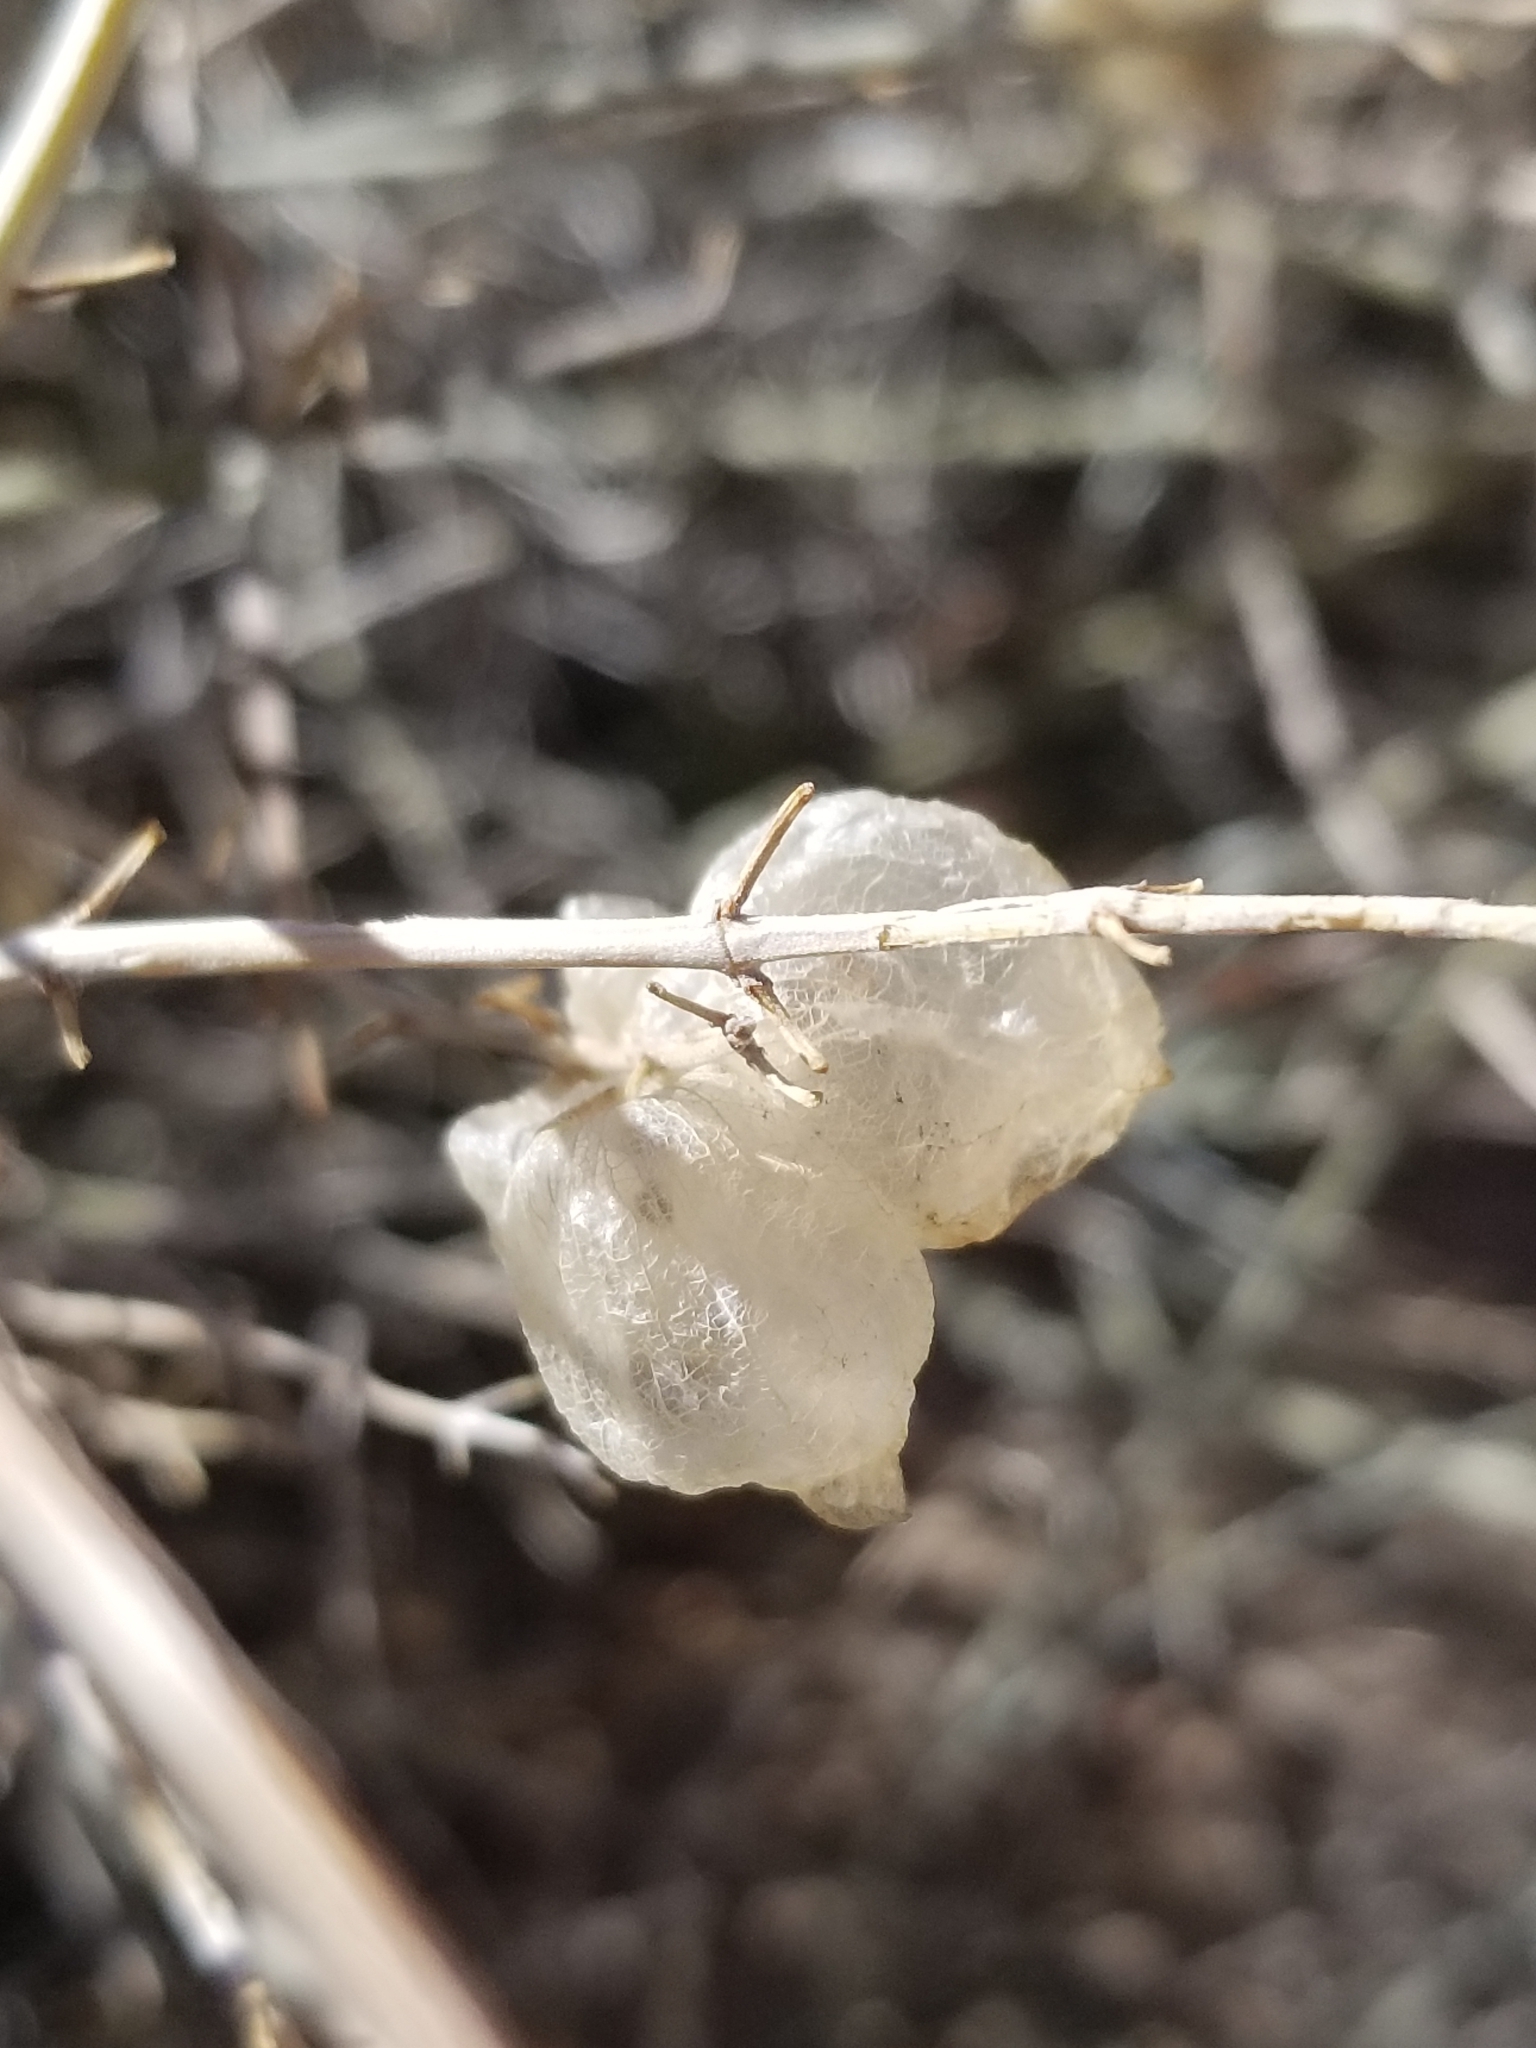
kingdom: Plantae
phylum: Tracheophyta
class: Magnoliopsida
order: Lamiales
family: Lamiaceae
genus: Scutellaria
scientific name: Scutellaria mexicana
